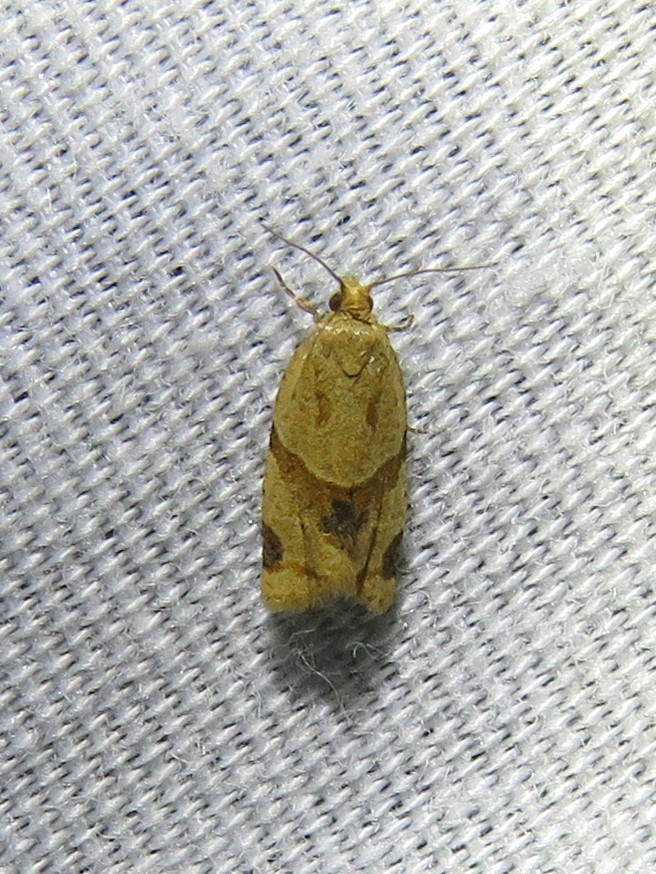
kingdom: Animalia
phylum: Arthropoda
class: Insecta
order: Lepidoptera
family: Tortricidae
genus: Clepsis
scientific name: Clepsis peritana
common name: Garden tortrix
